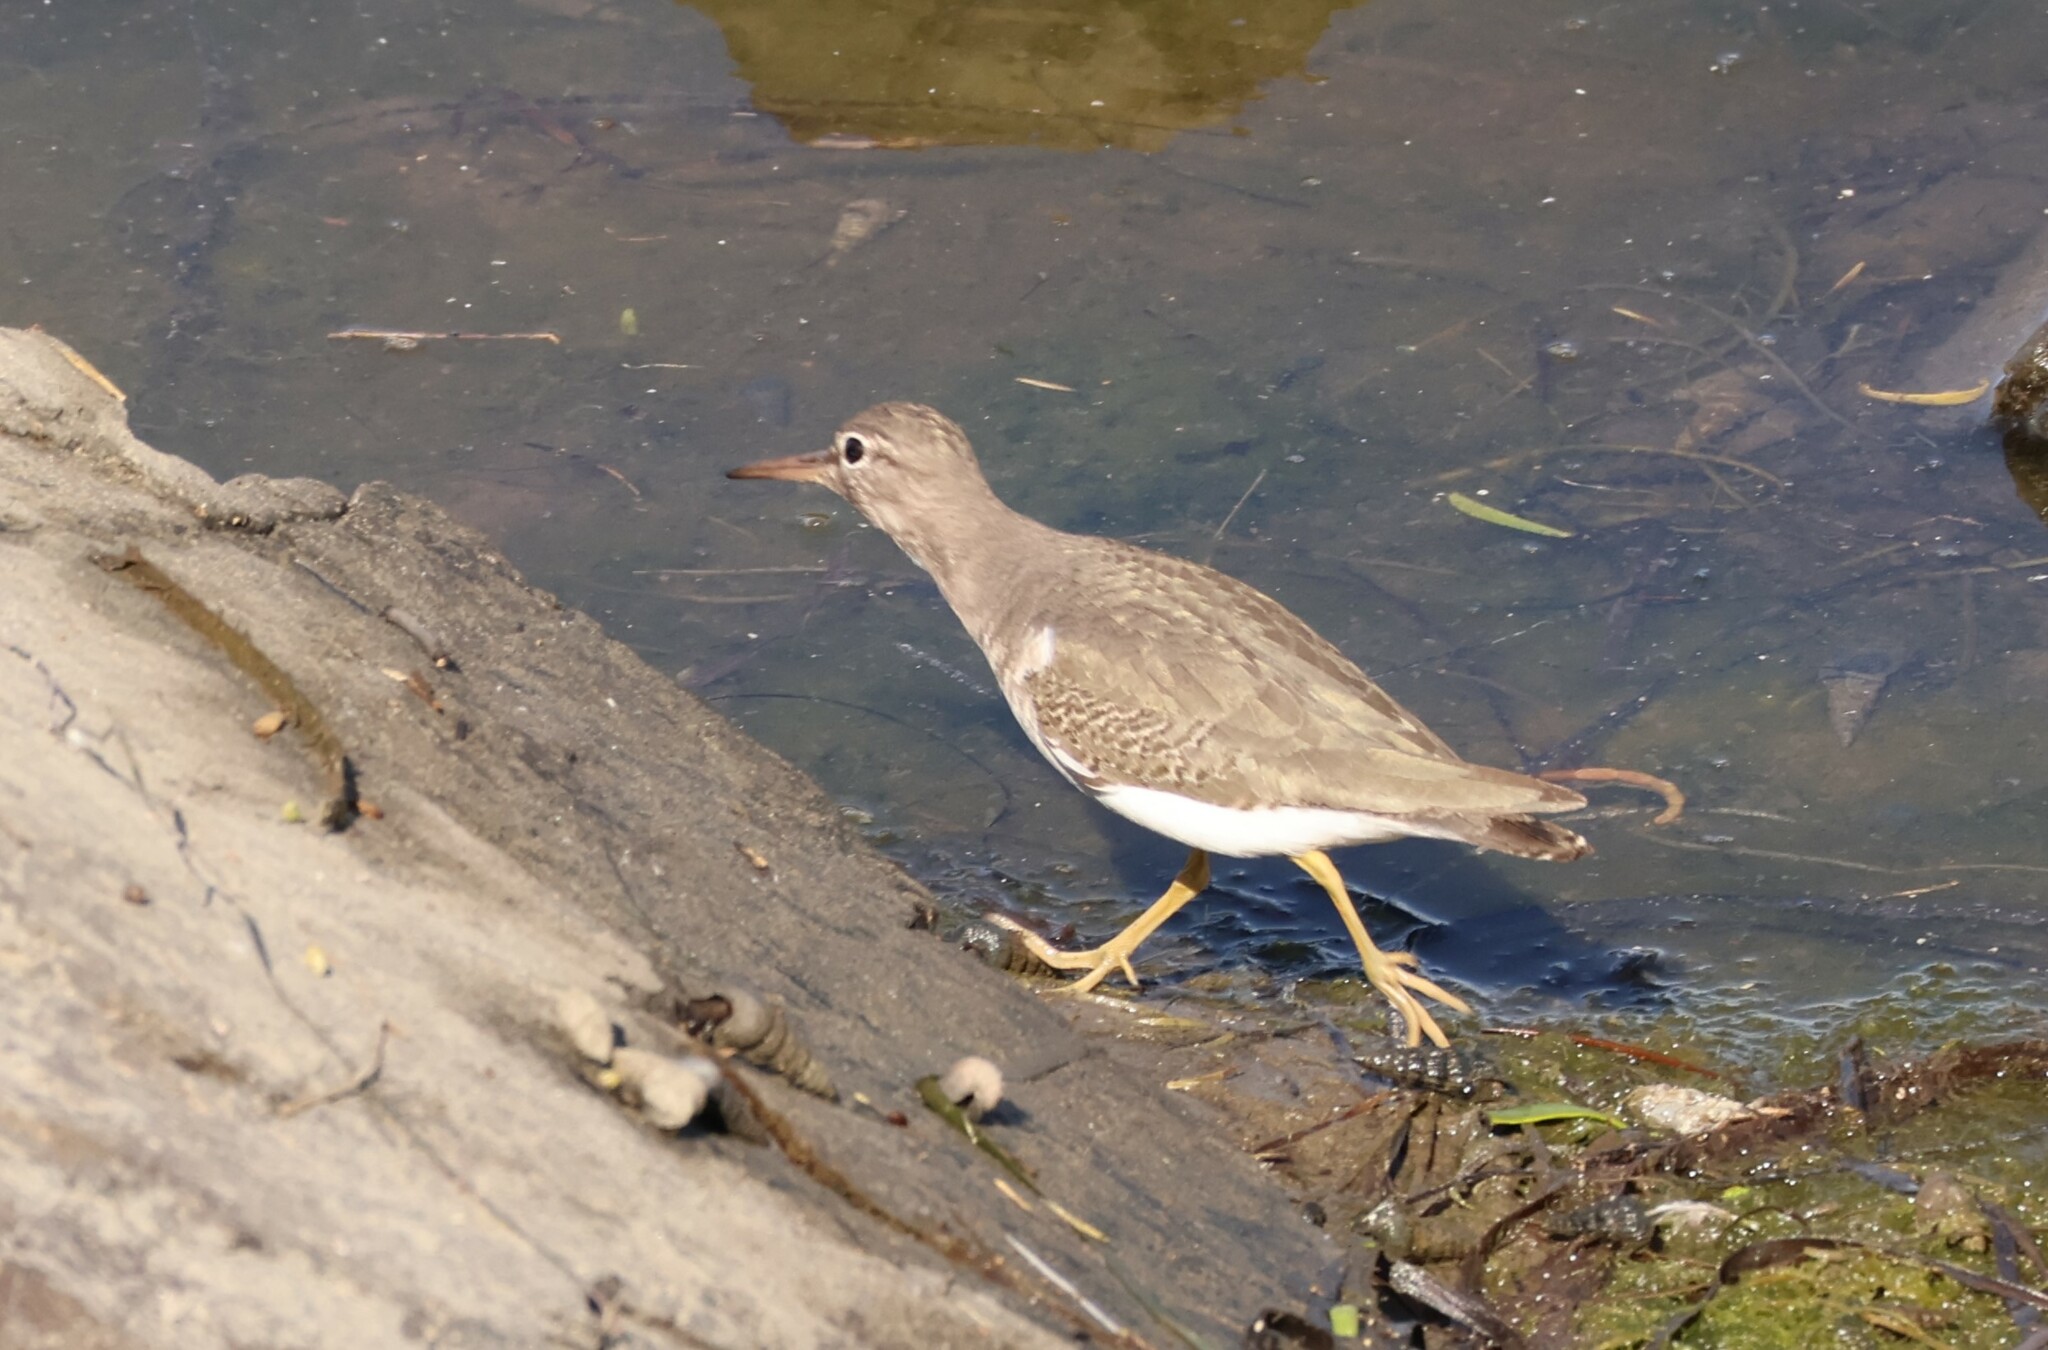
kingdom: Animalia
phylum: Chordata
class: Aves
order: Charadriiformes
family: Scolopacidae
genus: Actitis
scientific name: Actitis macularius
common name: Spotted sandpiper
